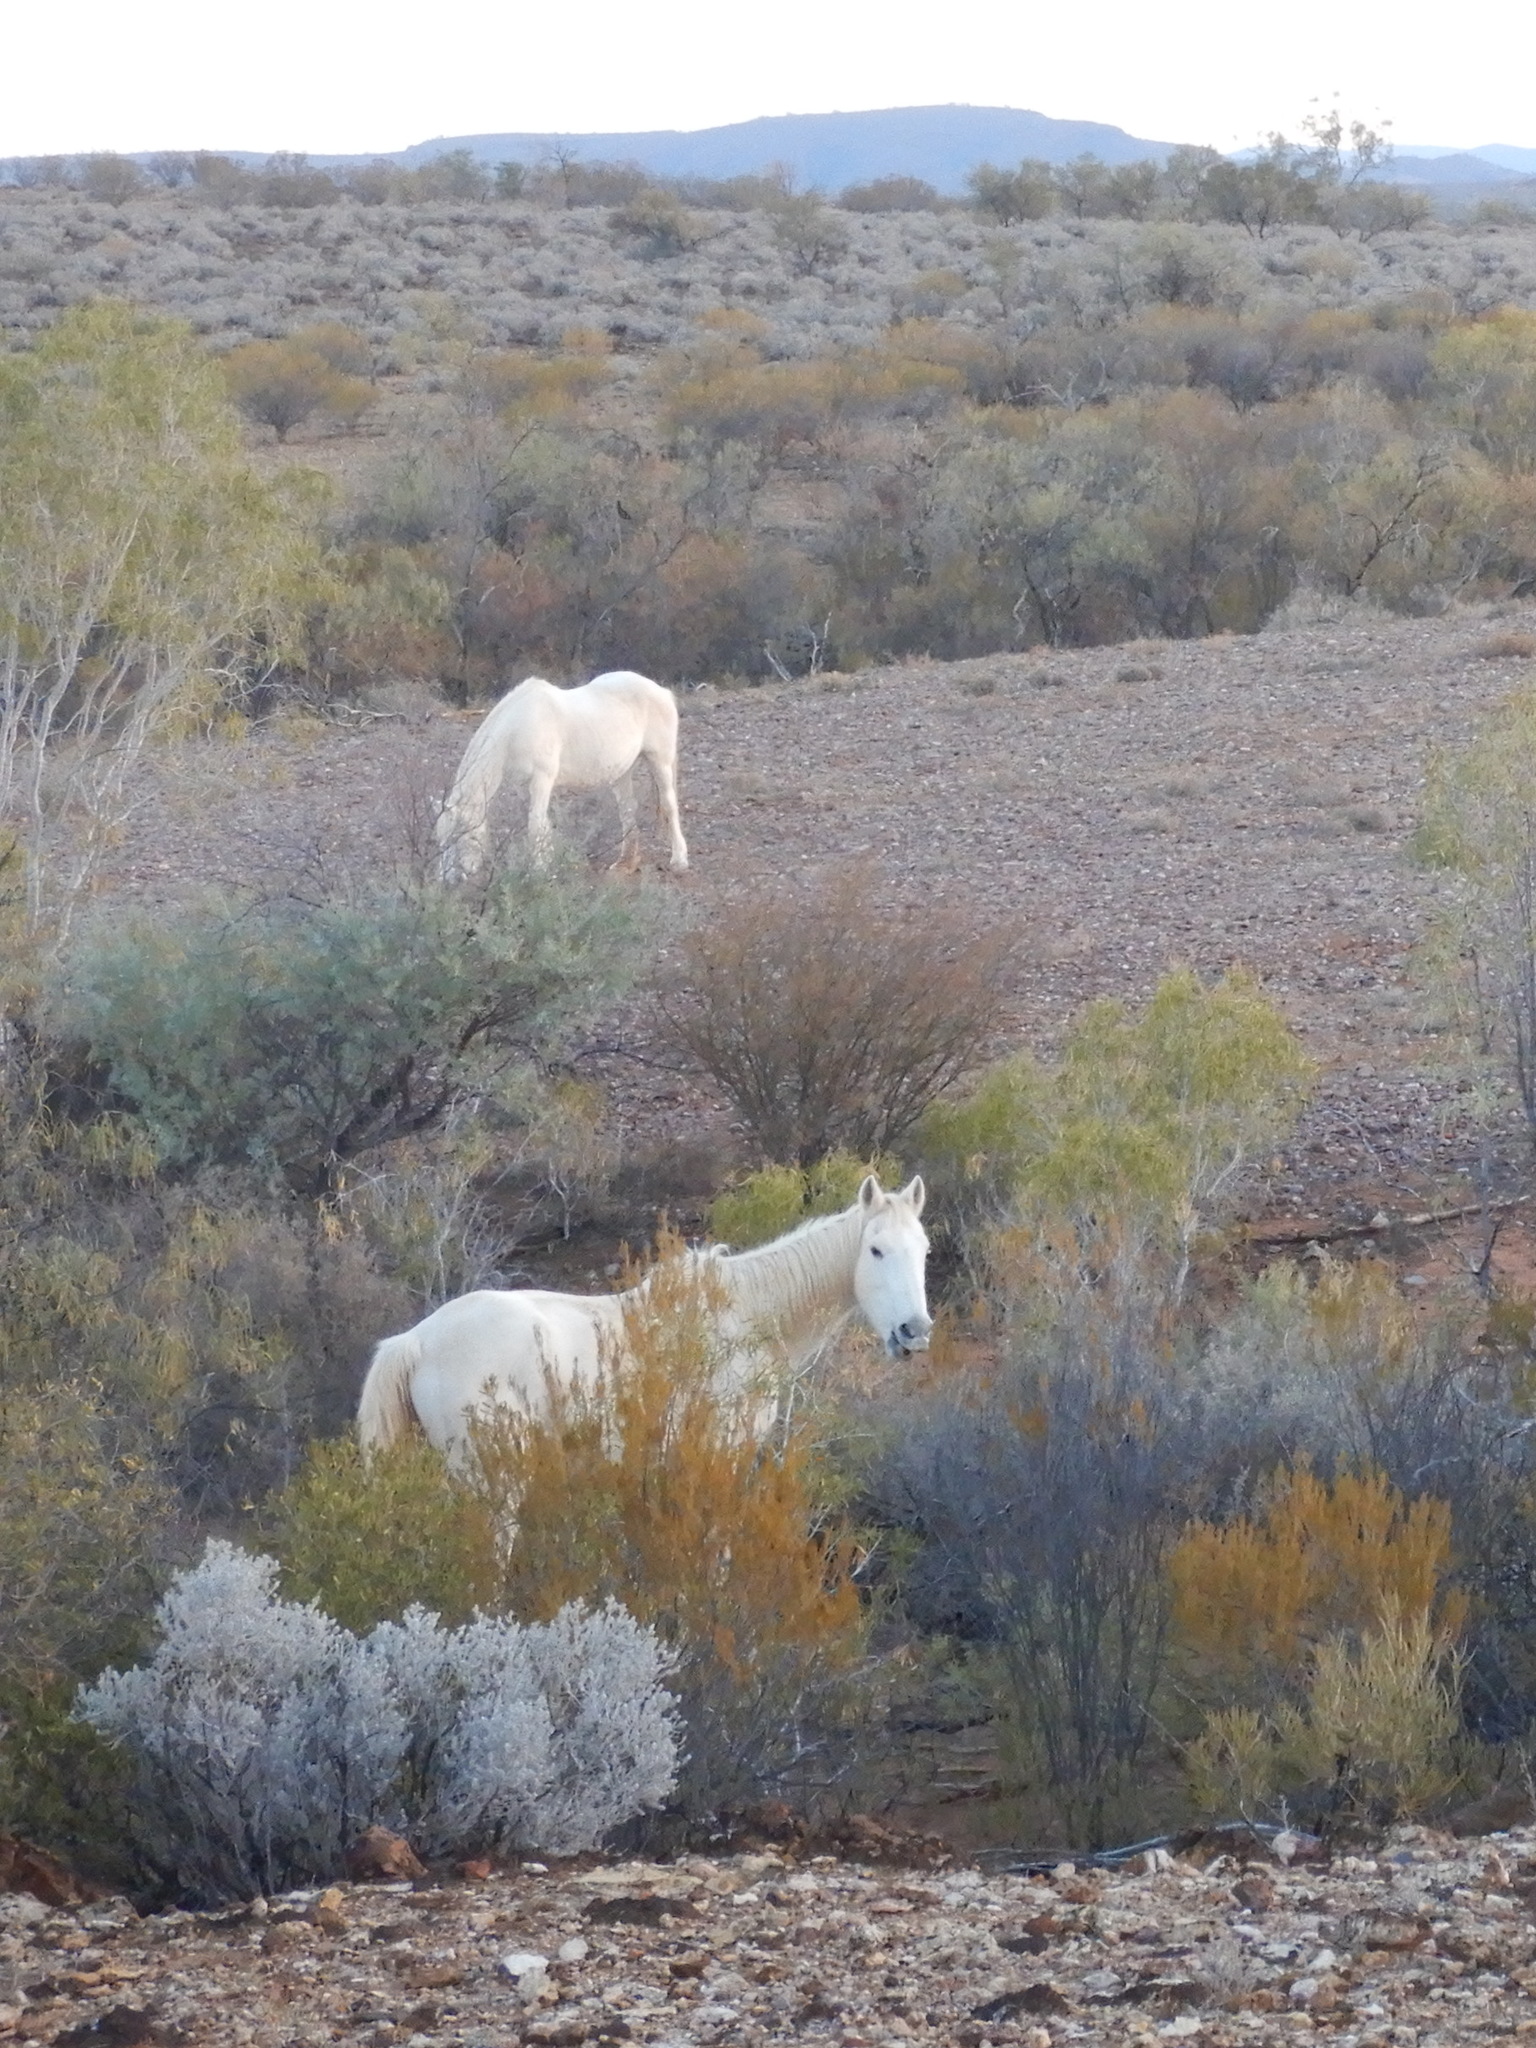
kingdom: Animalia
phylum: Chordata
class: Mammalia
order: Perissodactyla
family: Equidae
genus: Equus
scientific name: Equus caballus
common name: Horse
